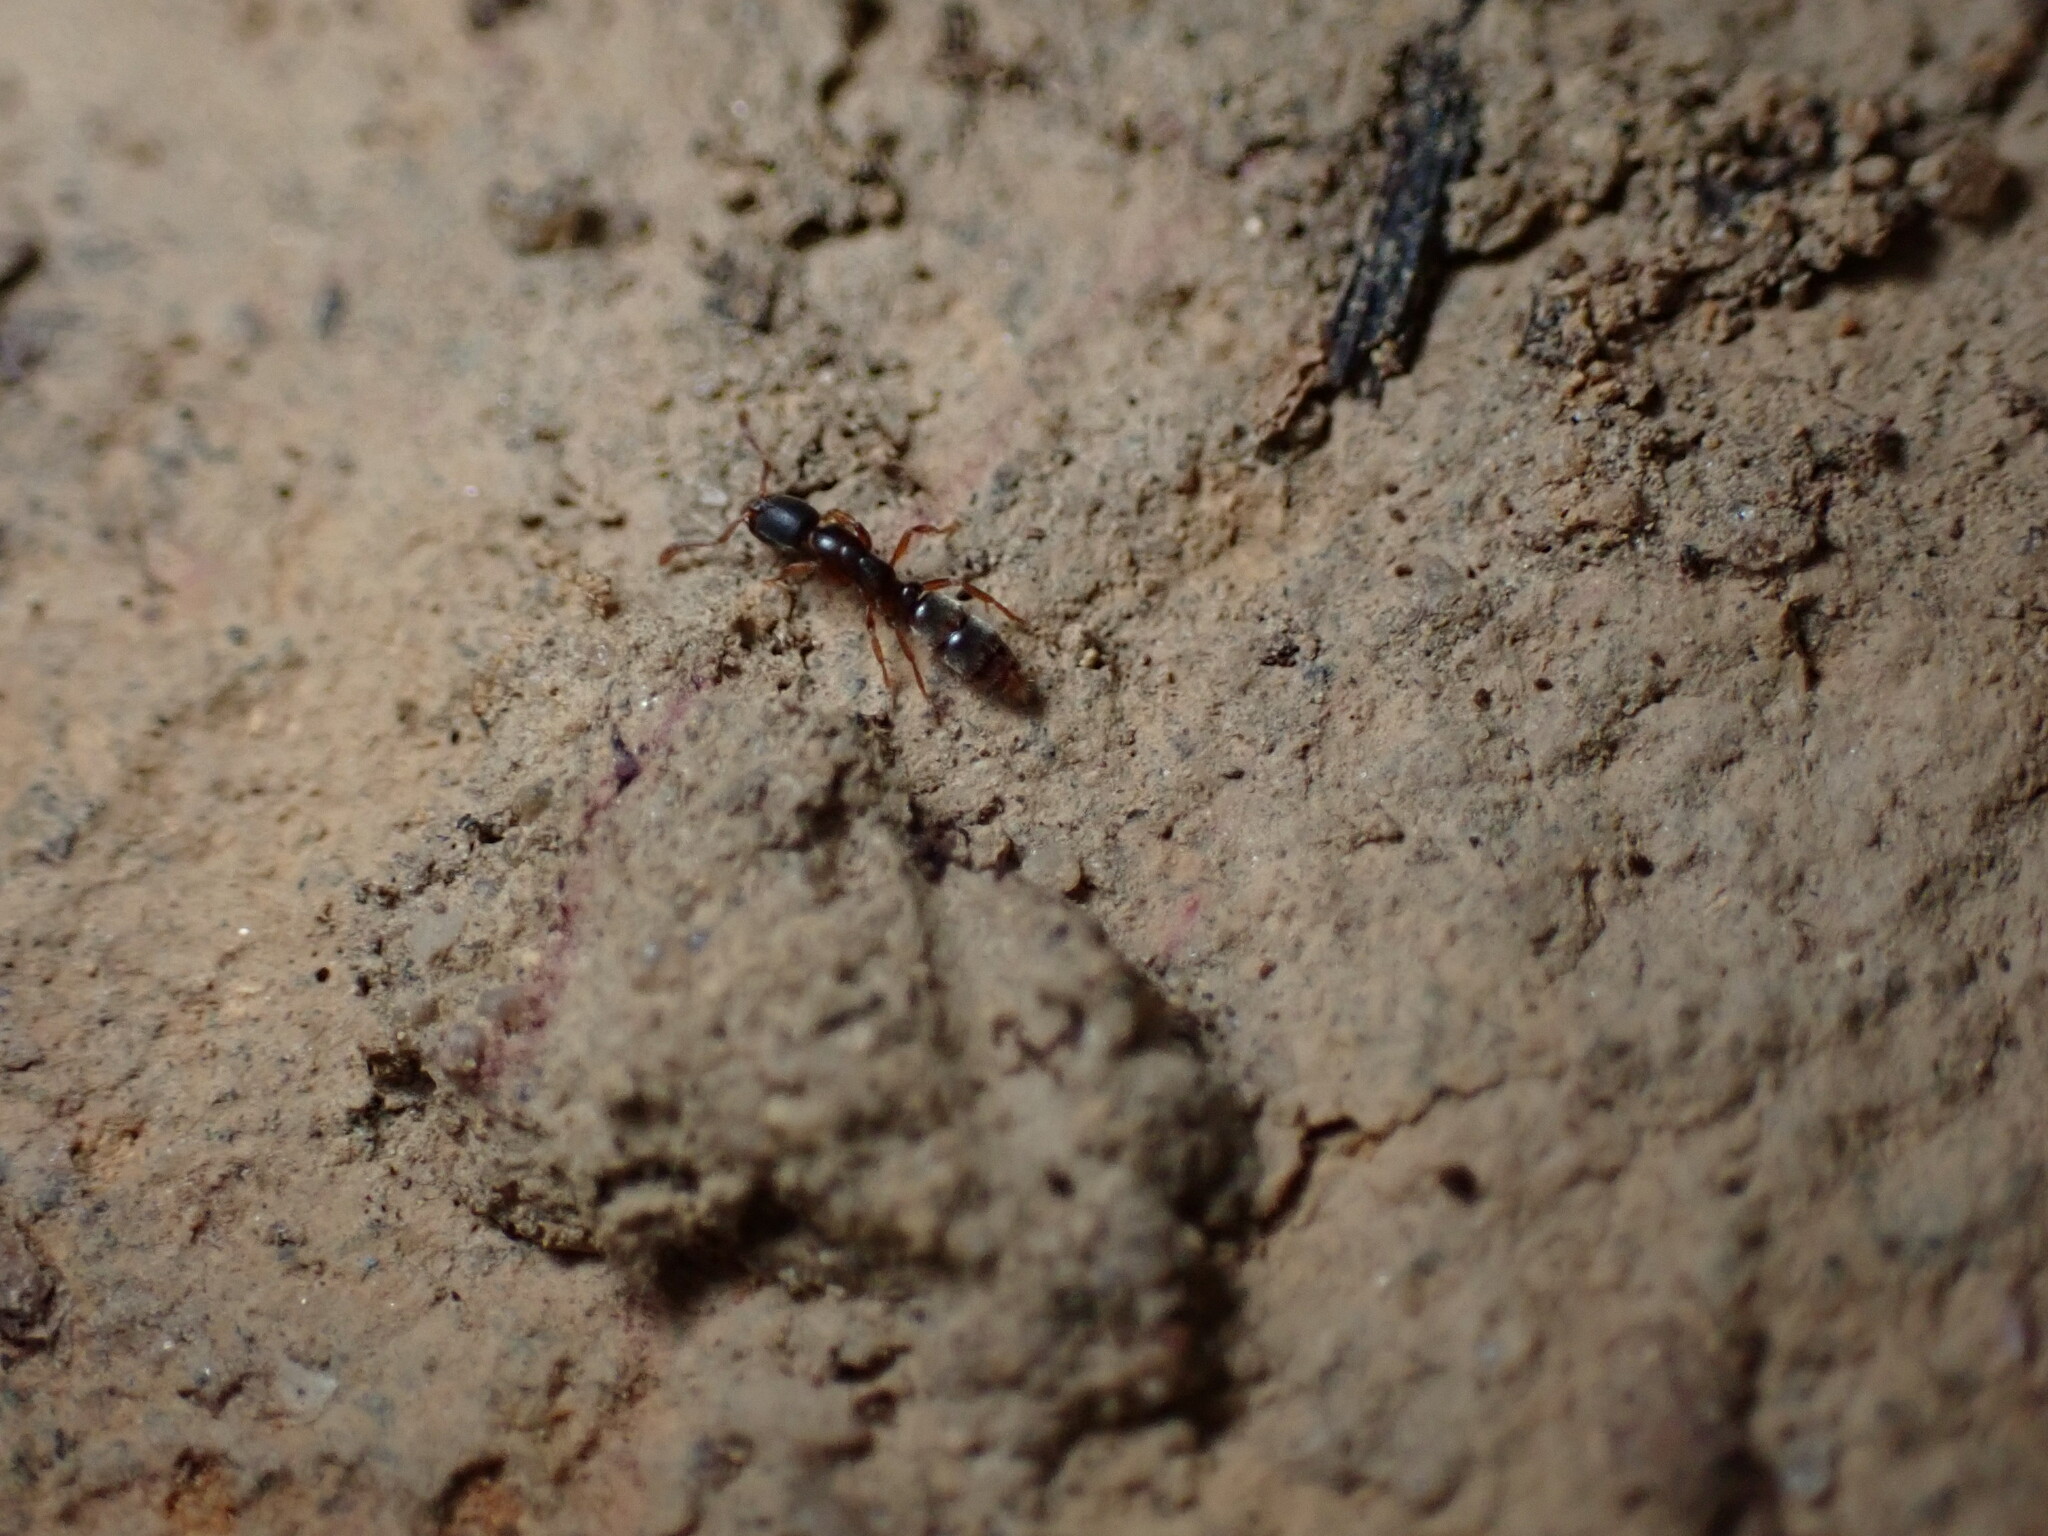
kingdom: Animalia
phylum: Arthropoda
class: Insecta
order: Hymenoptera
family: Formicidae
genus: Ponera
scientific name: Ponera pennsylvanica
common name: Pennsylvania ponera
